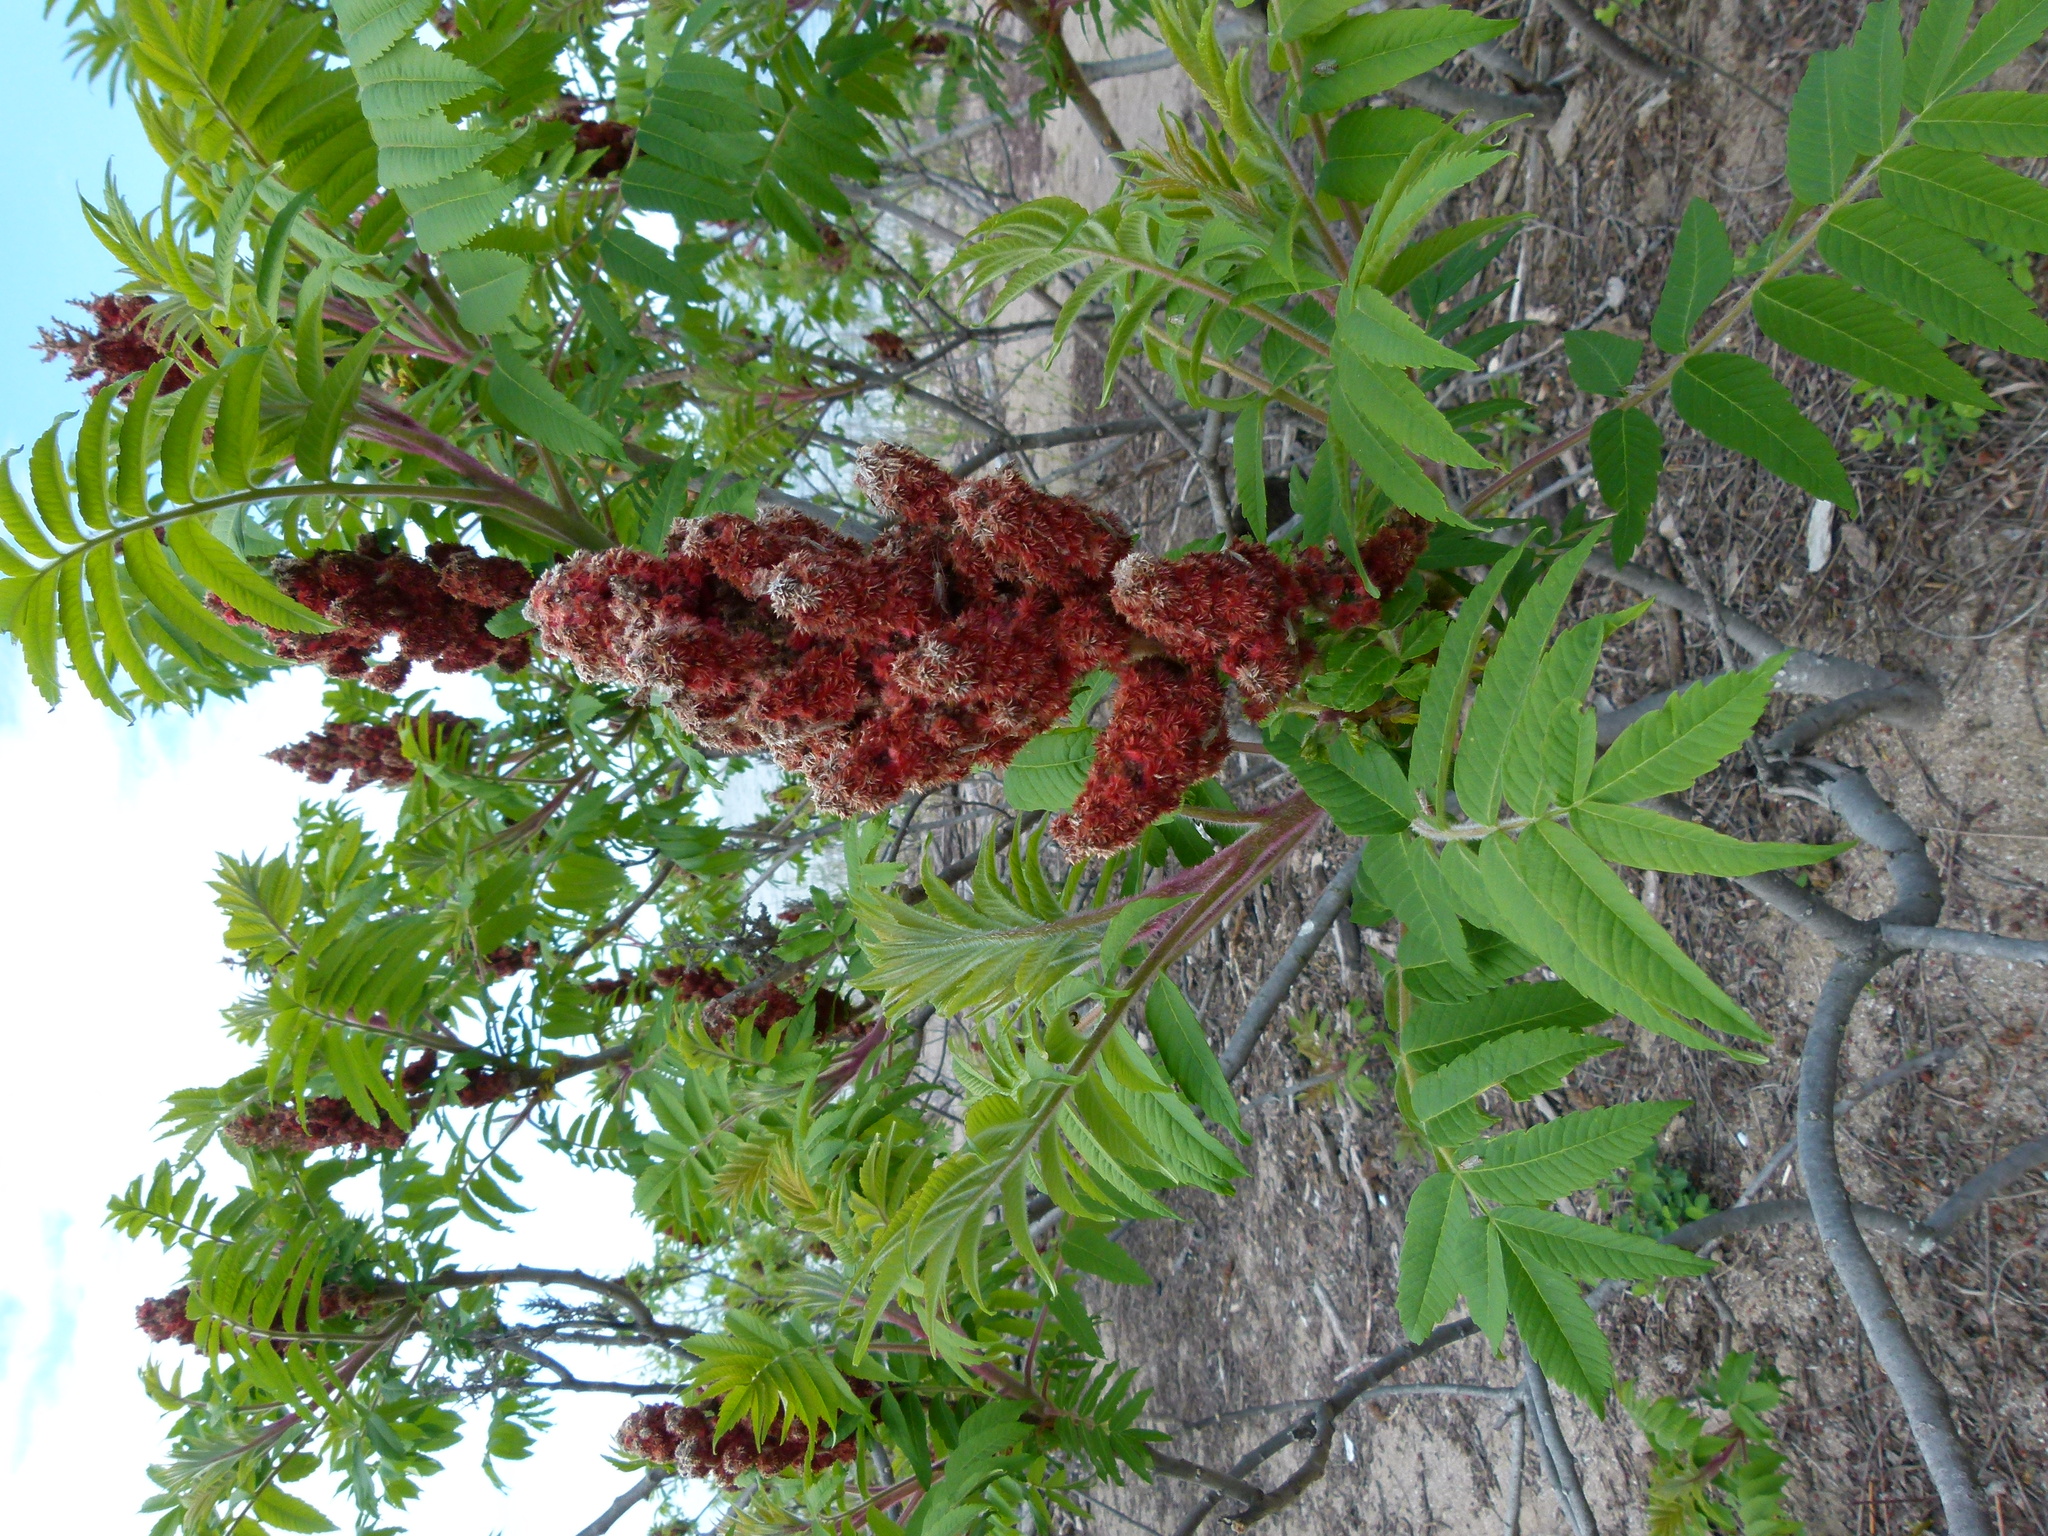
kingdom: Plantae
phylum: Tracheophyta
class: Magnoliopsida
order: Sapindales
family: Anacardiaceae
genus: Rhus
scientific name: Rhus typhina
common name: Staghorn sumac
